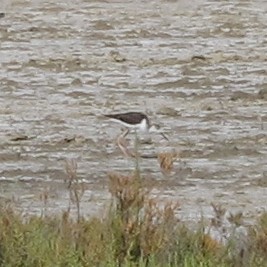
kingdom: Animalia
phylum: Chordata
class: Aves
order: Charadriiformes
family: Recurvirostridae
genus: Himantopus
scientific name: Himantopus himantopus
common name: Black-winged stilt
